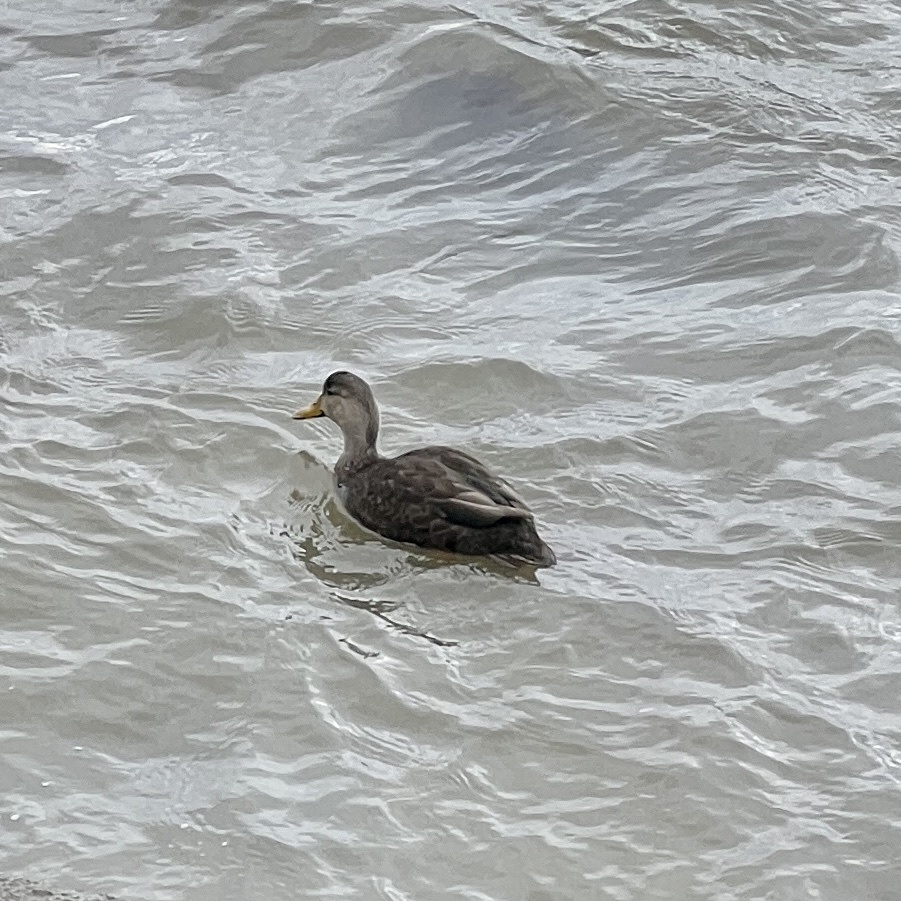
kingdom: Animalia
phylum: Chordata
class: Aves
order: Anseriformes
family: Anatidae
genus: Anas
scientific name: Anas rubripes
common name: American black duck
